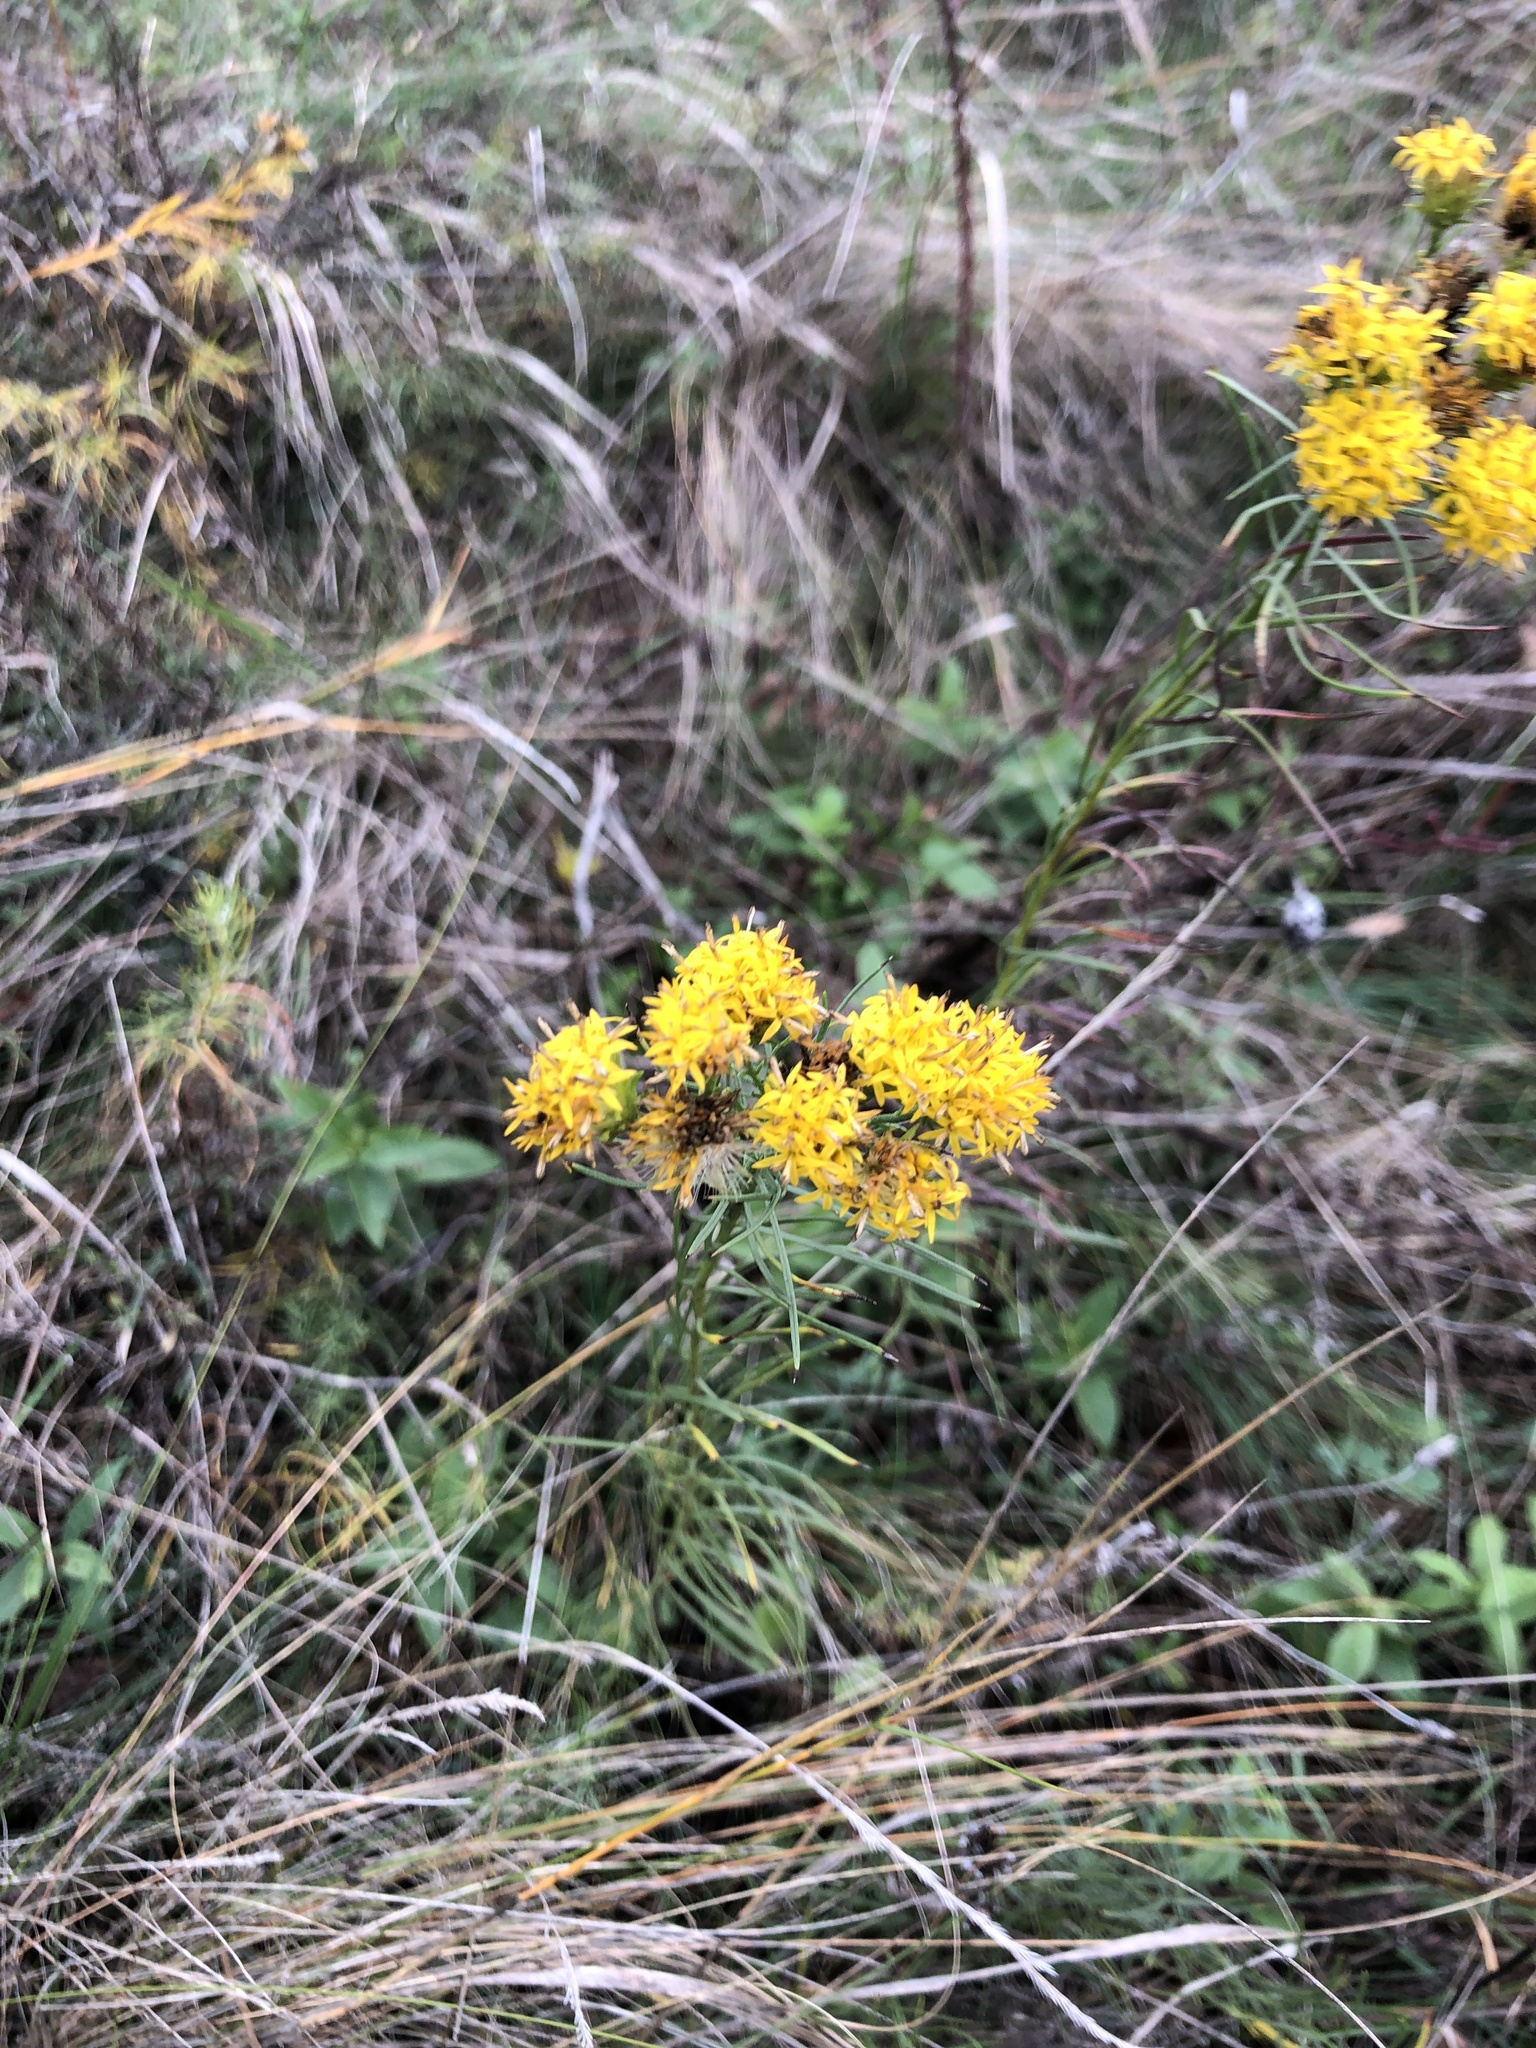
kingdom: Plantae
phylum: Tracheophyta
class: Magnoliopsida
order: Asterales
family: Asteraceae
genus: Galatella
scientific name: Galatella linosyris
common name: Goldilocks aster
